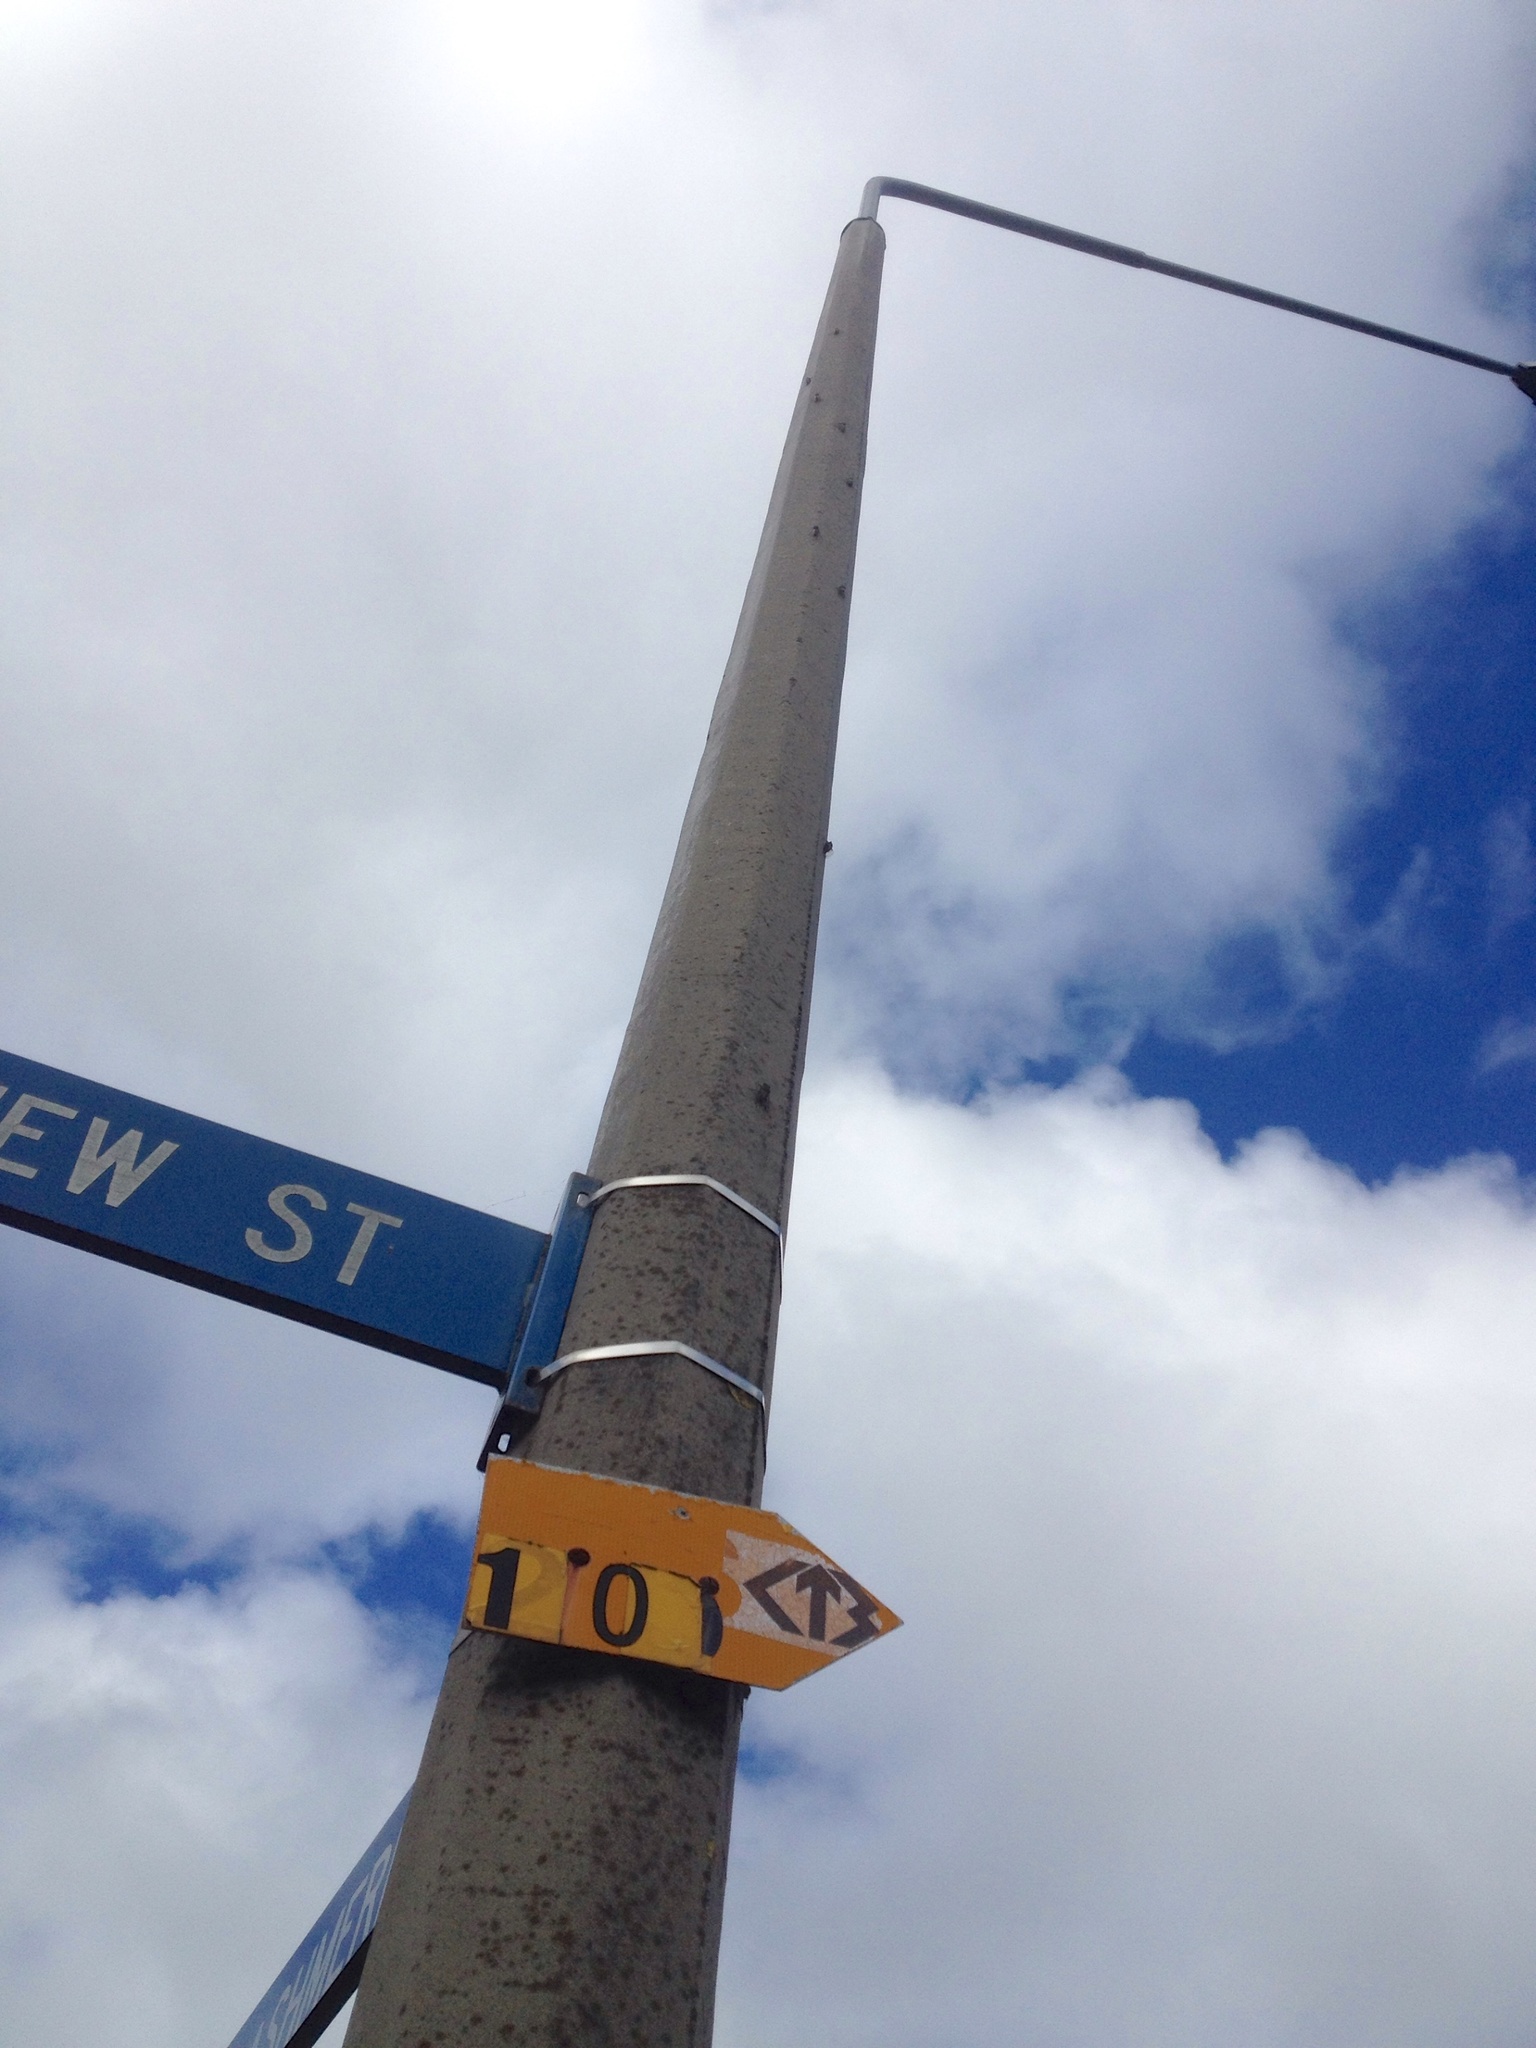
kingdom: Animalia
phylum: Arthropoda
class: Insecta
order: Hemiptera
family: Cicadidae
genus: Amphipsalta
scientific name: Amphipsalta zelandica
